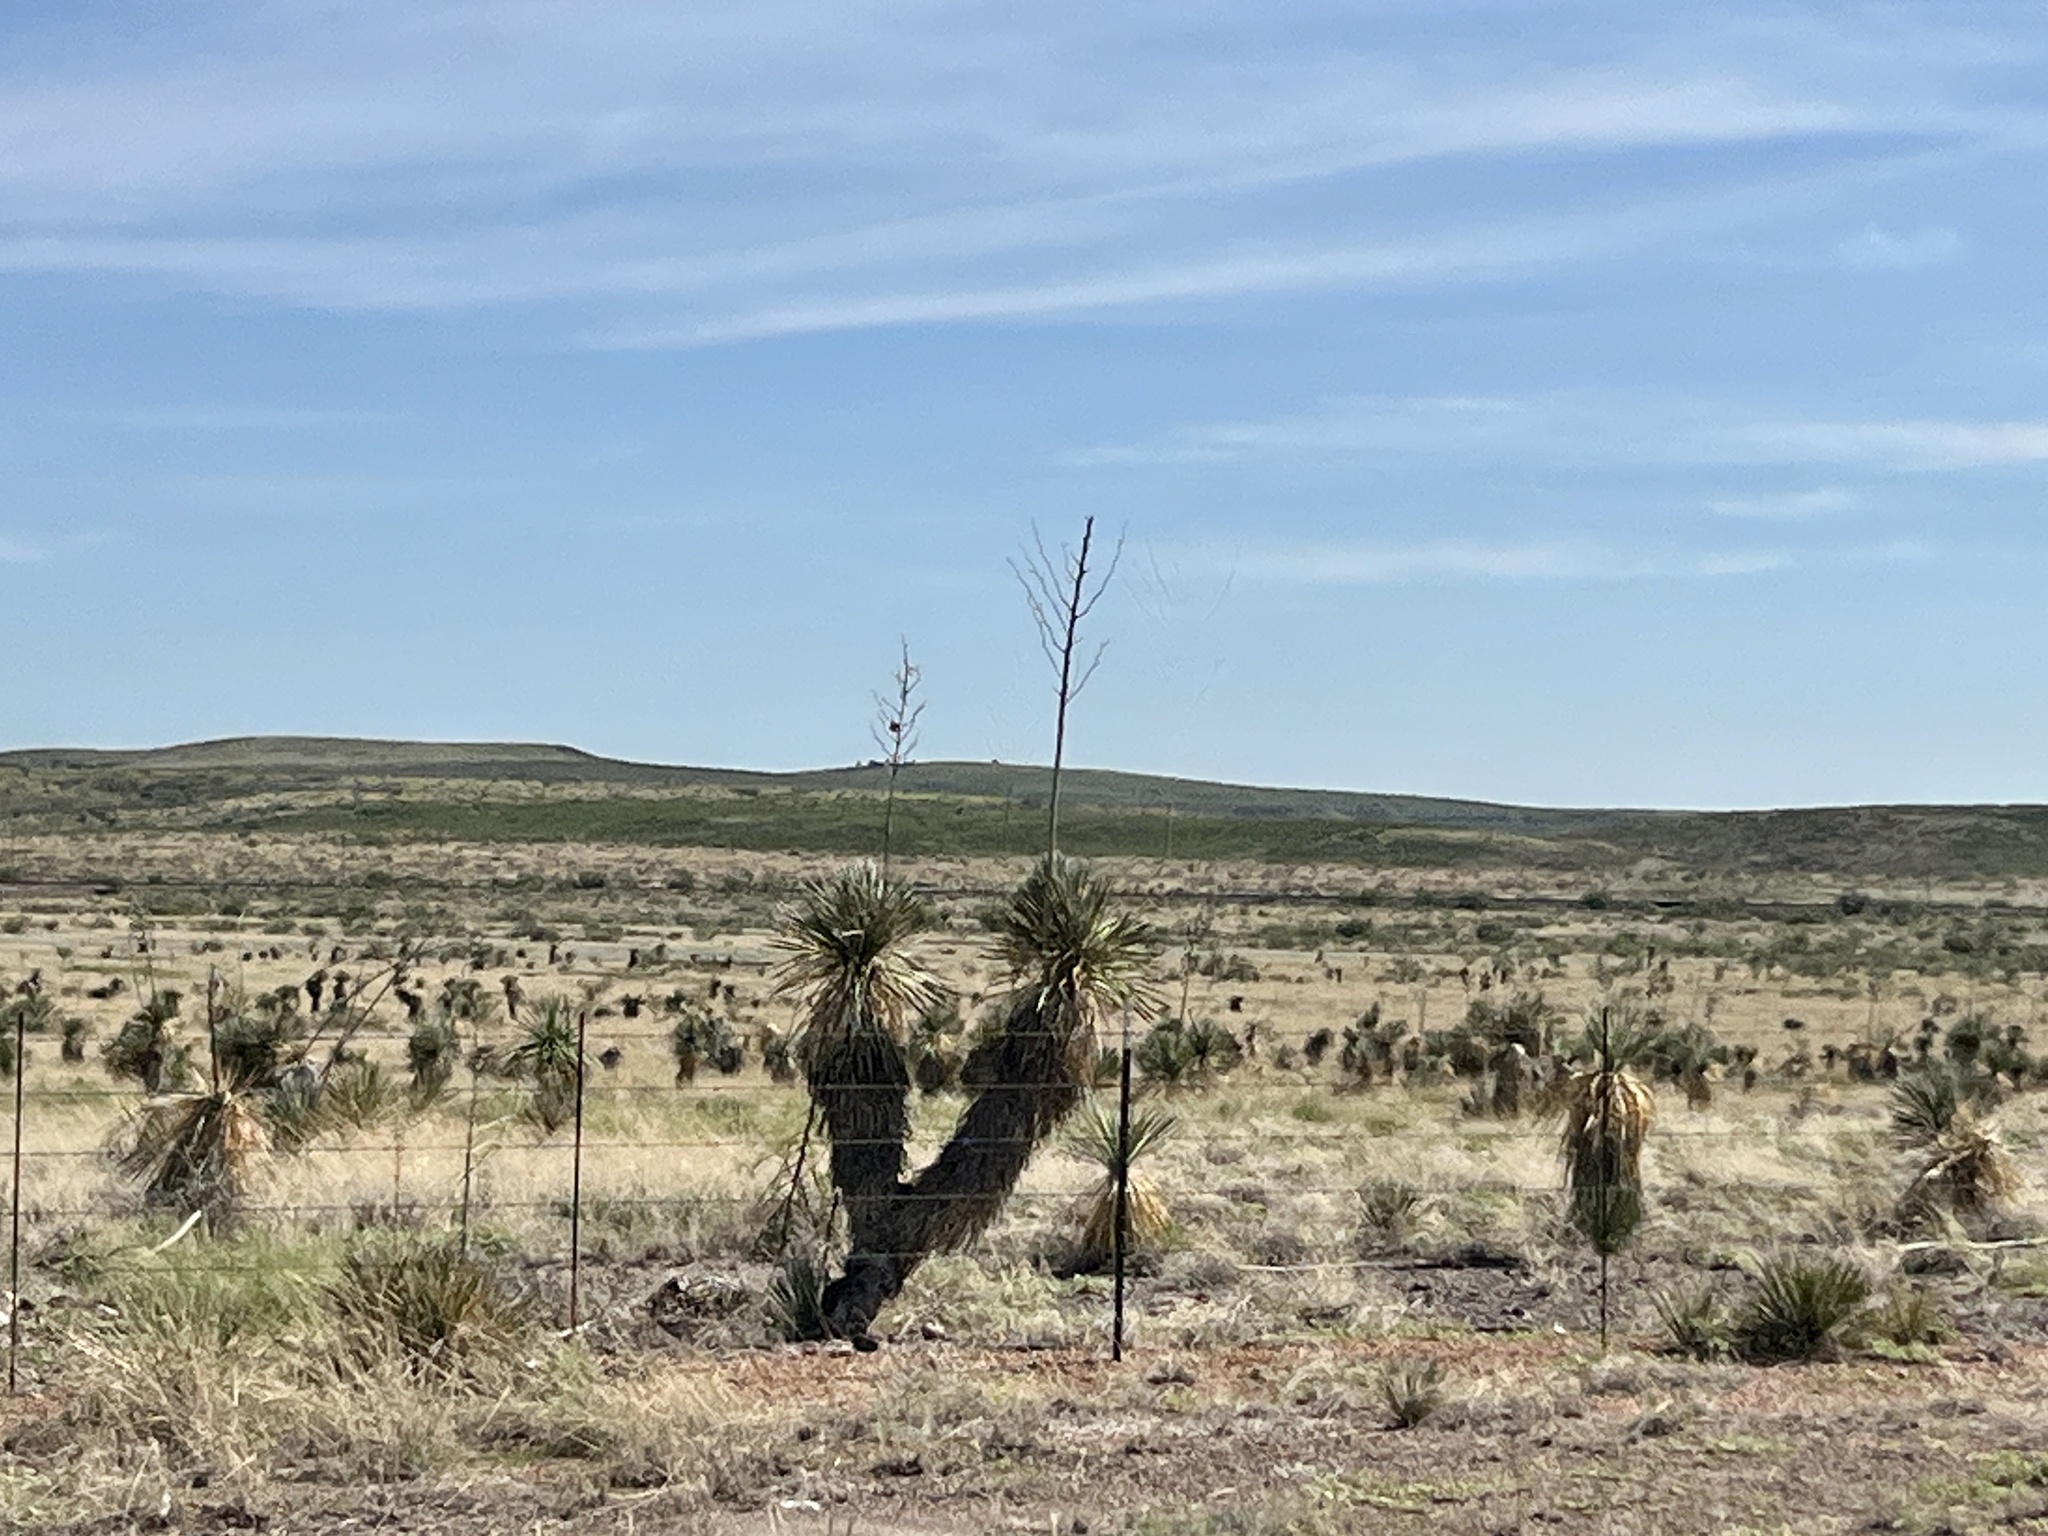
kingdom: Plantae
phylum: Tracheophyta
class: Liliopsida
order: Asparagales
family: Asparagaceae
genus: Yucca
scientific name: Yucca elata
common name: Palmella
